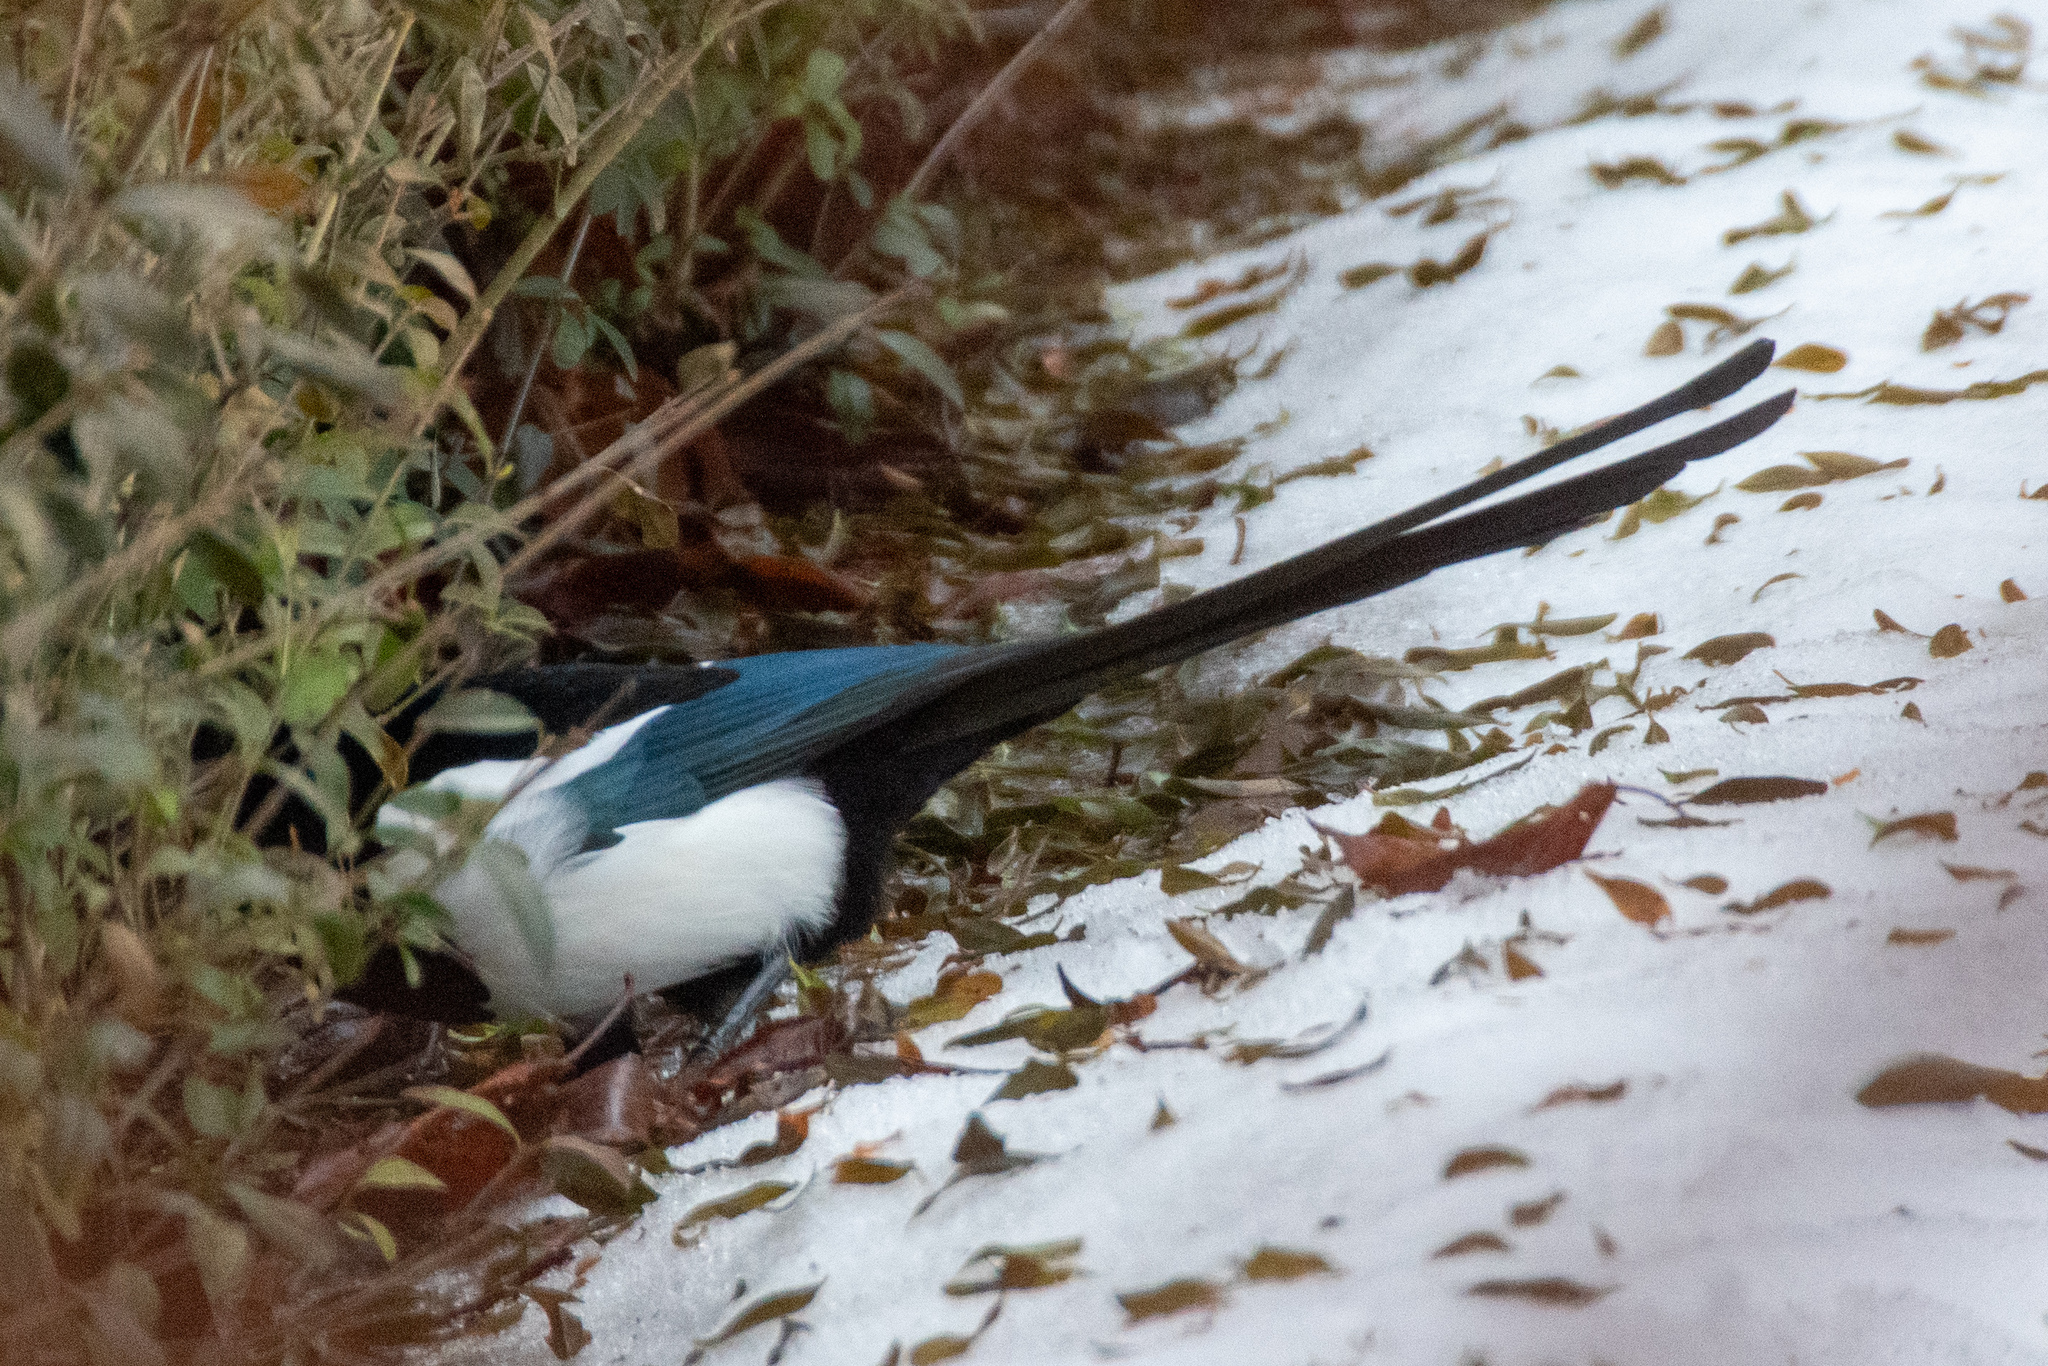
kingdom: Animalia
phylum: Chordata
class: Aves
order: Passeriformes
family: Corvidae
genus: Pica
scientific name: Pica pica
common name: Eurasian magpie
